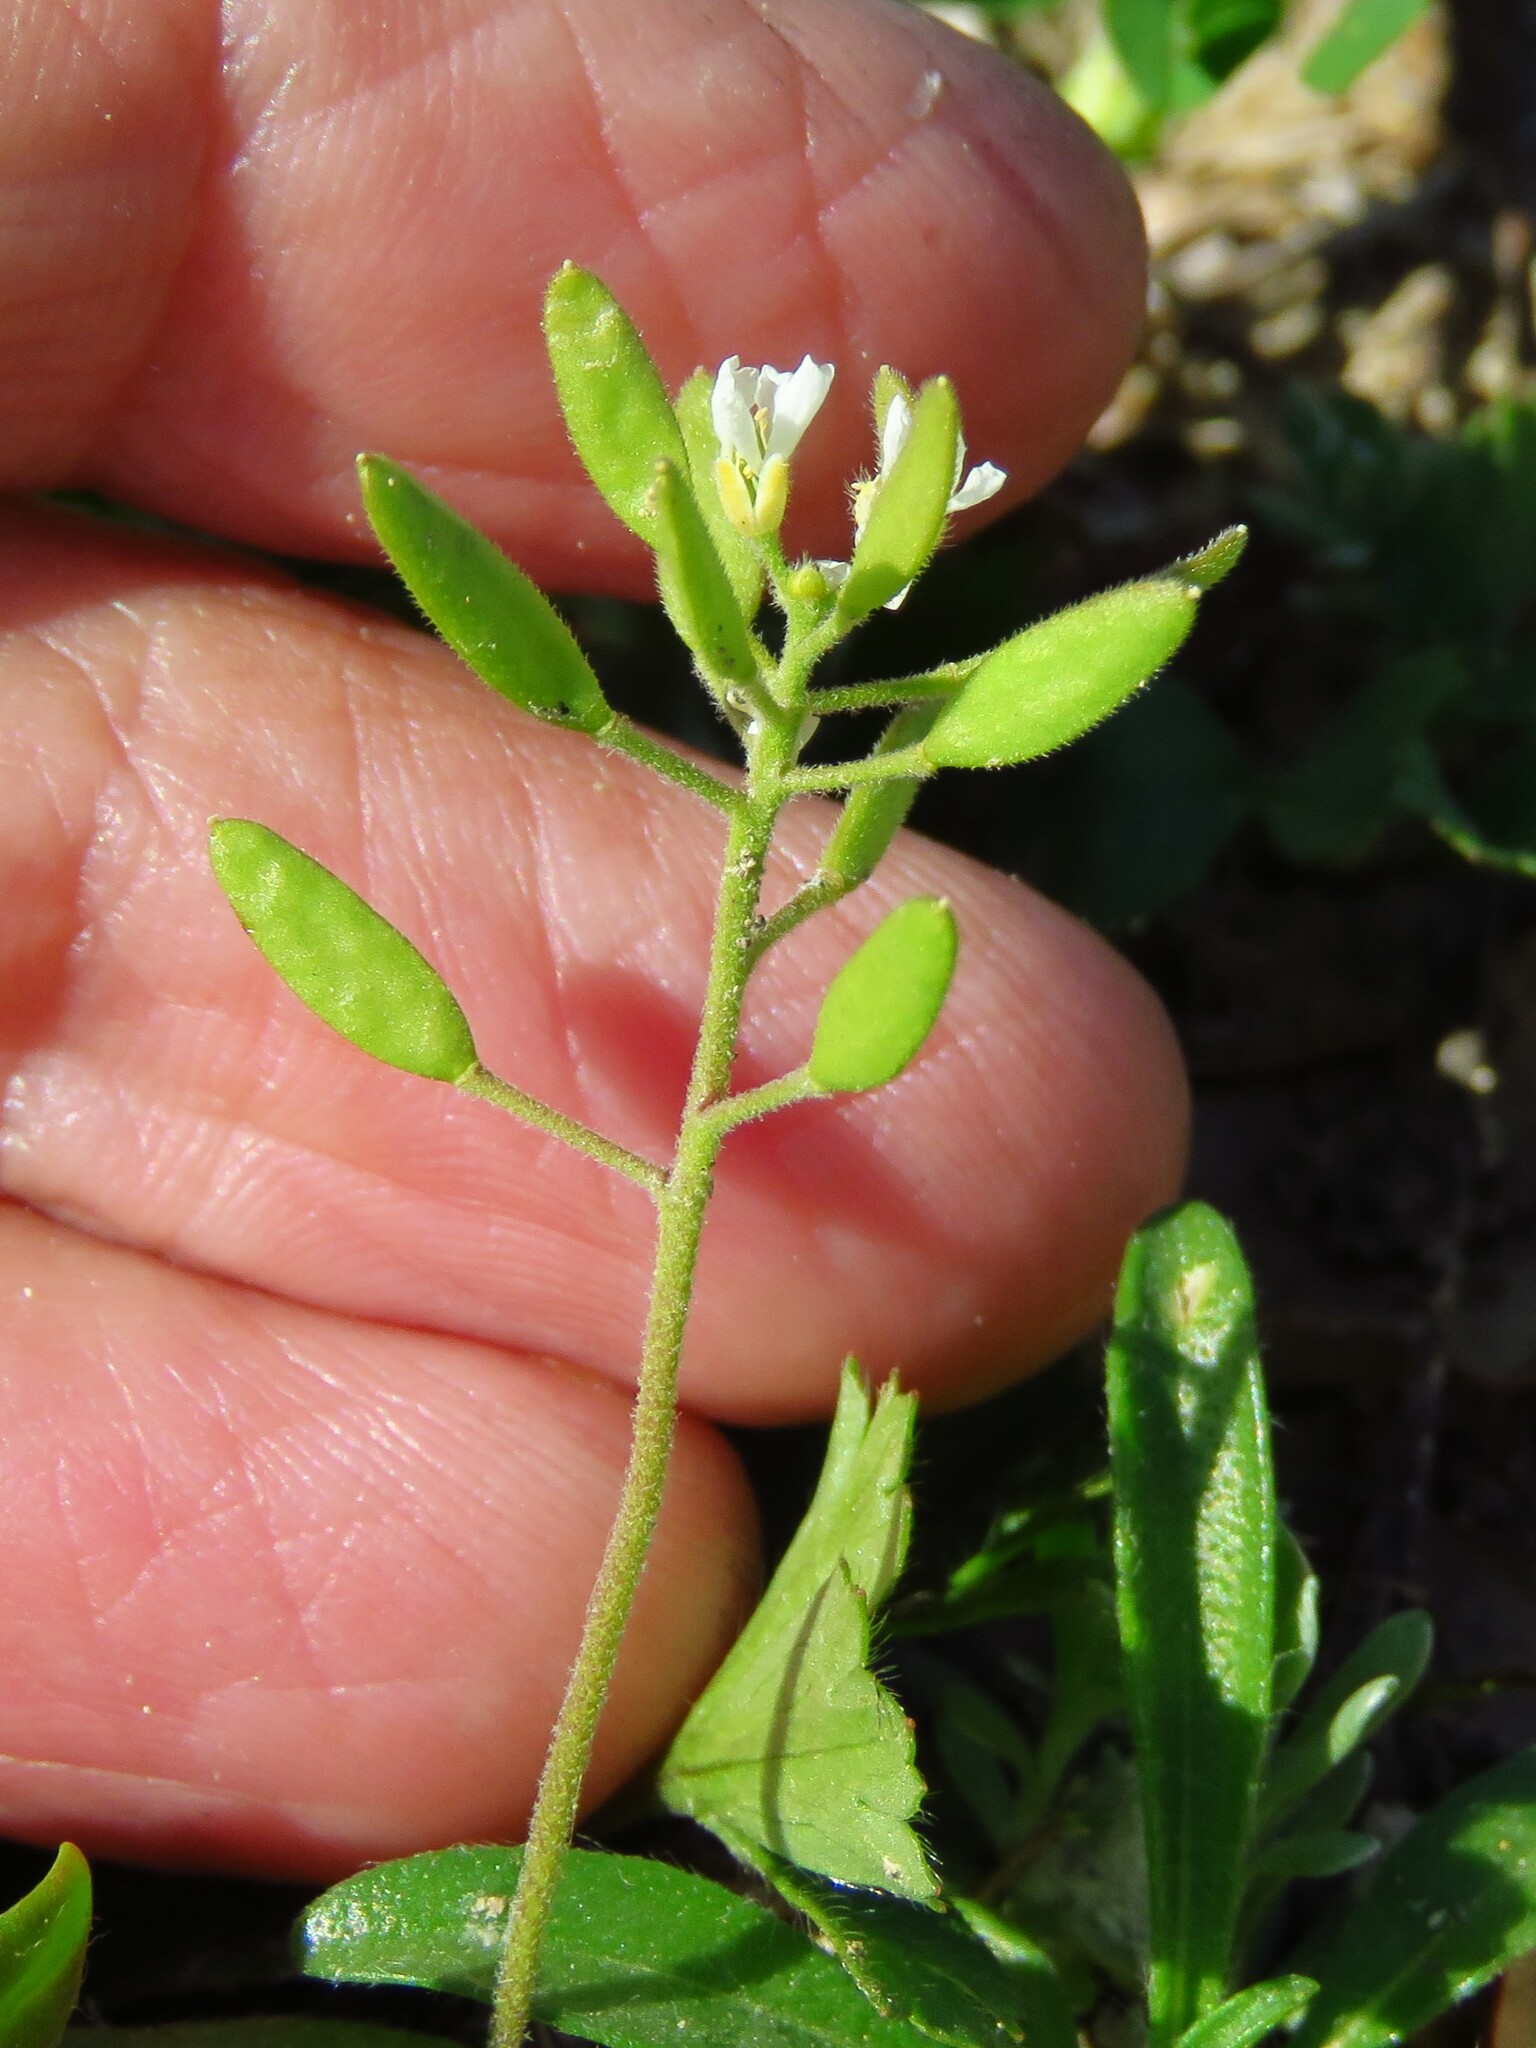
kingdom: Plantae
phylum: Tracheophyta
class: Magnoliopsida
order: Brassicales
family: Brassicaceae
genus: Tomostima
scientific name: Tomostima cuneifolia
